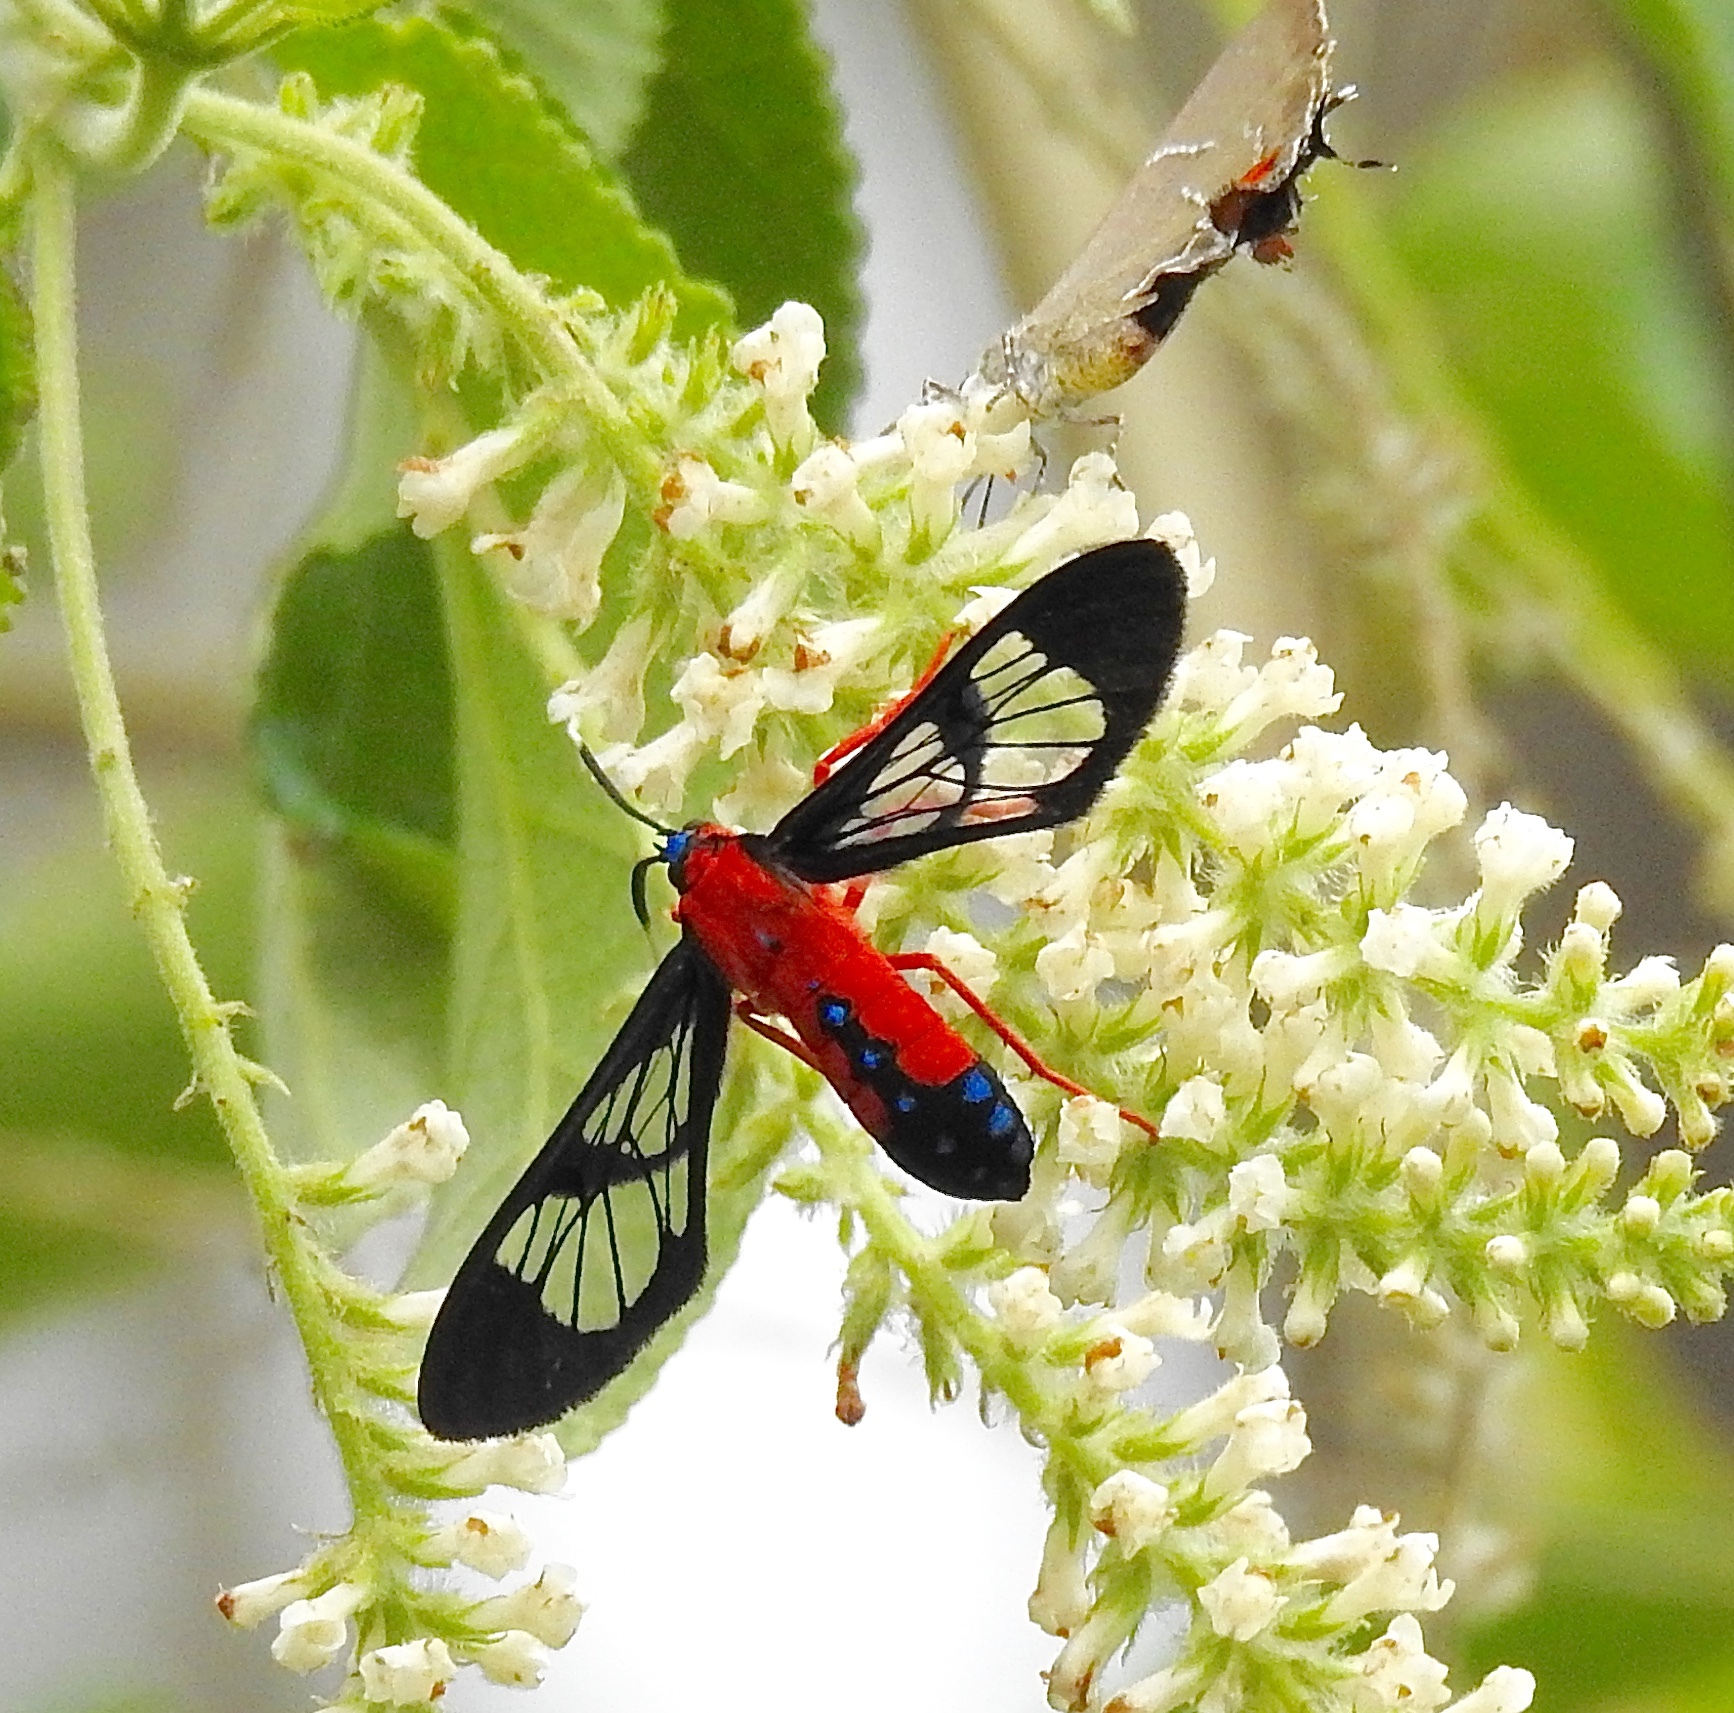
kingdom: Animalia
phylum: Arthropoda
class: Insecta
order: Lepidoptera
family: Erebidae
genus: Cosmosoma
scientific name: Cosmosoma myrodora
